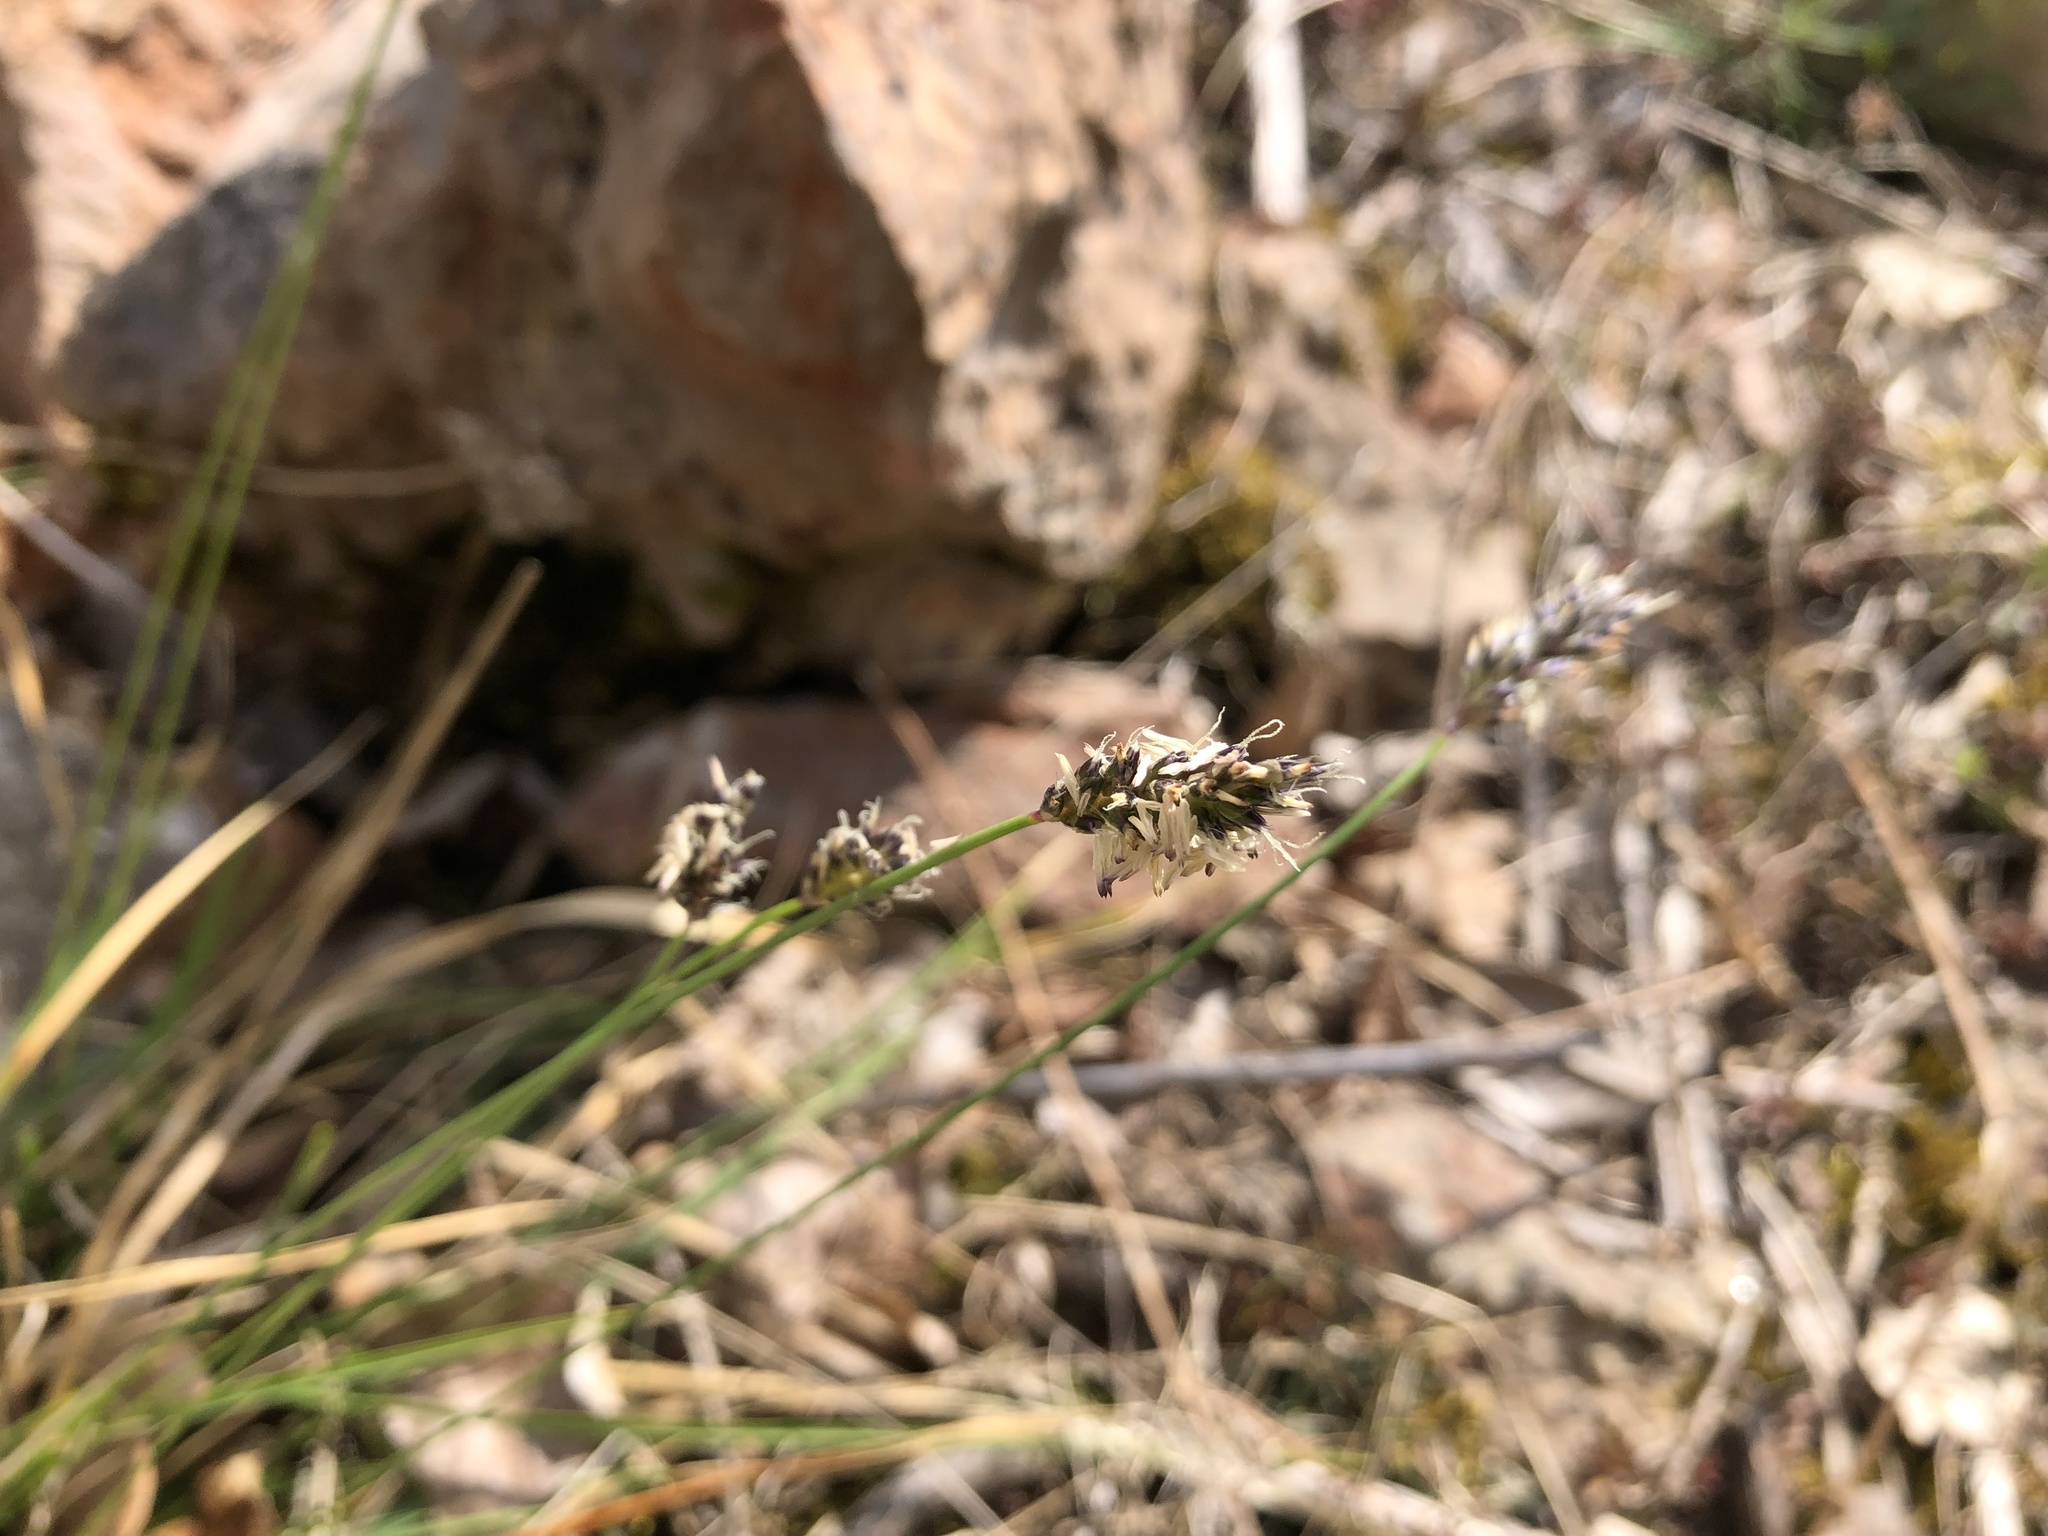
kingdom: Plantae
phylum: Tracheophyta
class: Liliopsida
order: Poales
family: Poaceae
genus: Sesleria
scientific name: Sesleria caerulea
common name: Blue moor-grass
